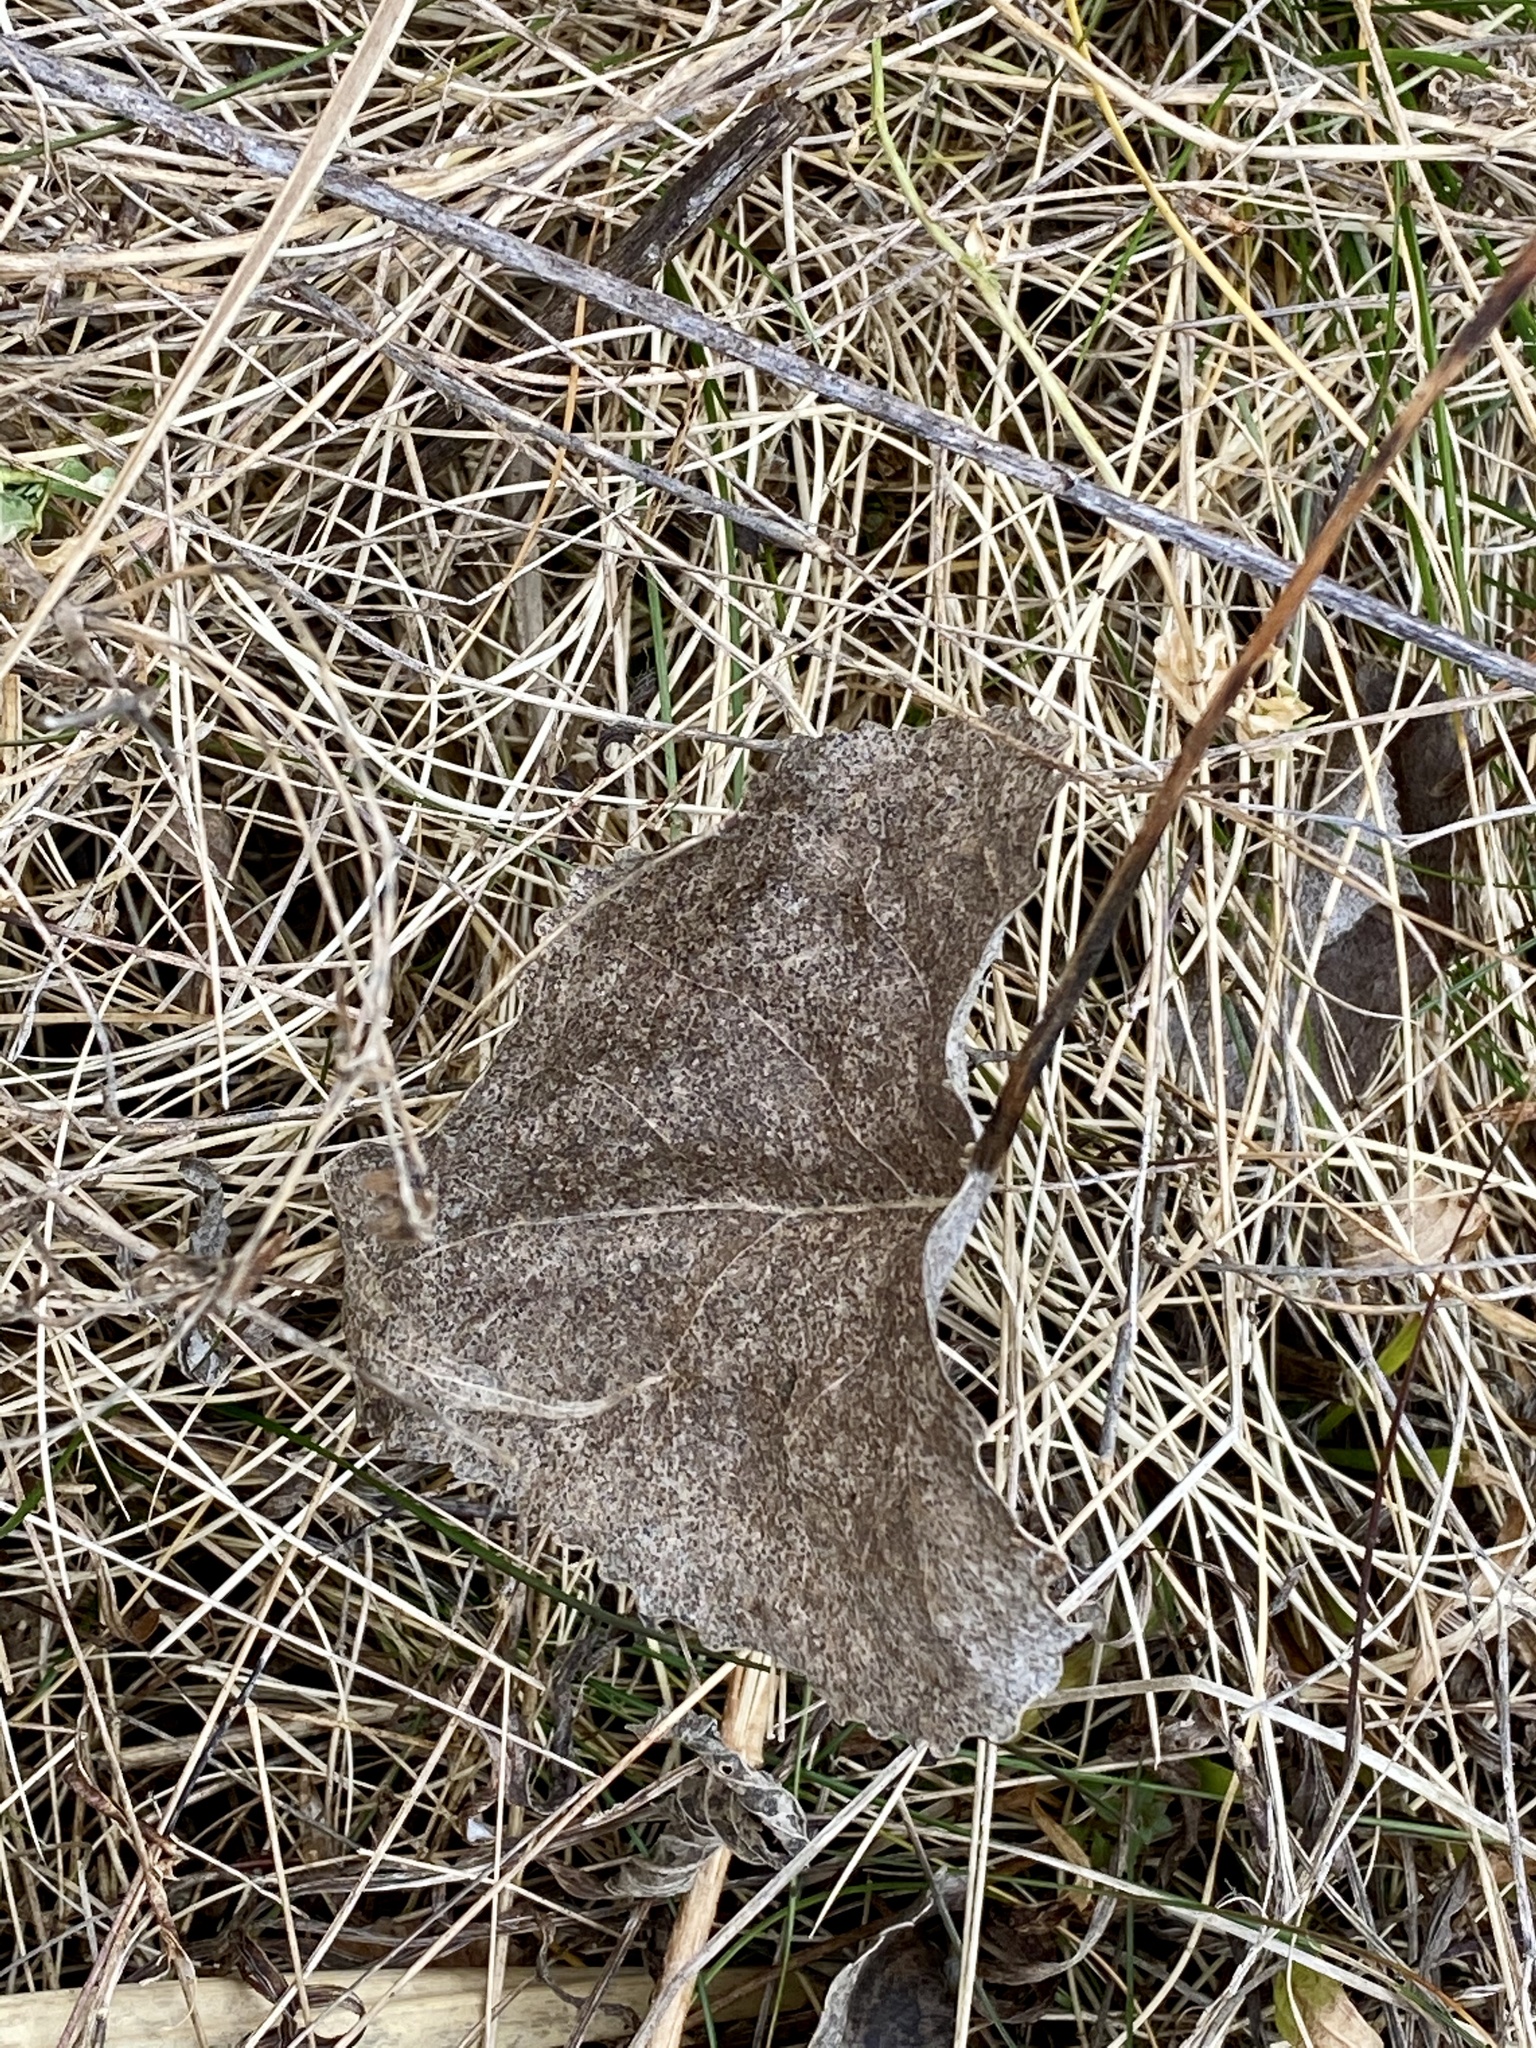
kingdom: Plantae
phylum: Tracheophyta
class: Magnoliopsida
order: Malpighiales
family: Salicaceae
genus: Populus
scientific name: Populus deltoides
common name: Eastern cottonwood
